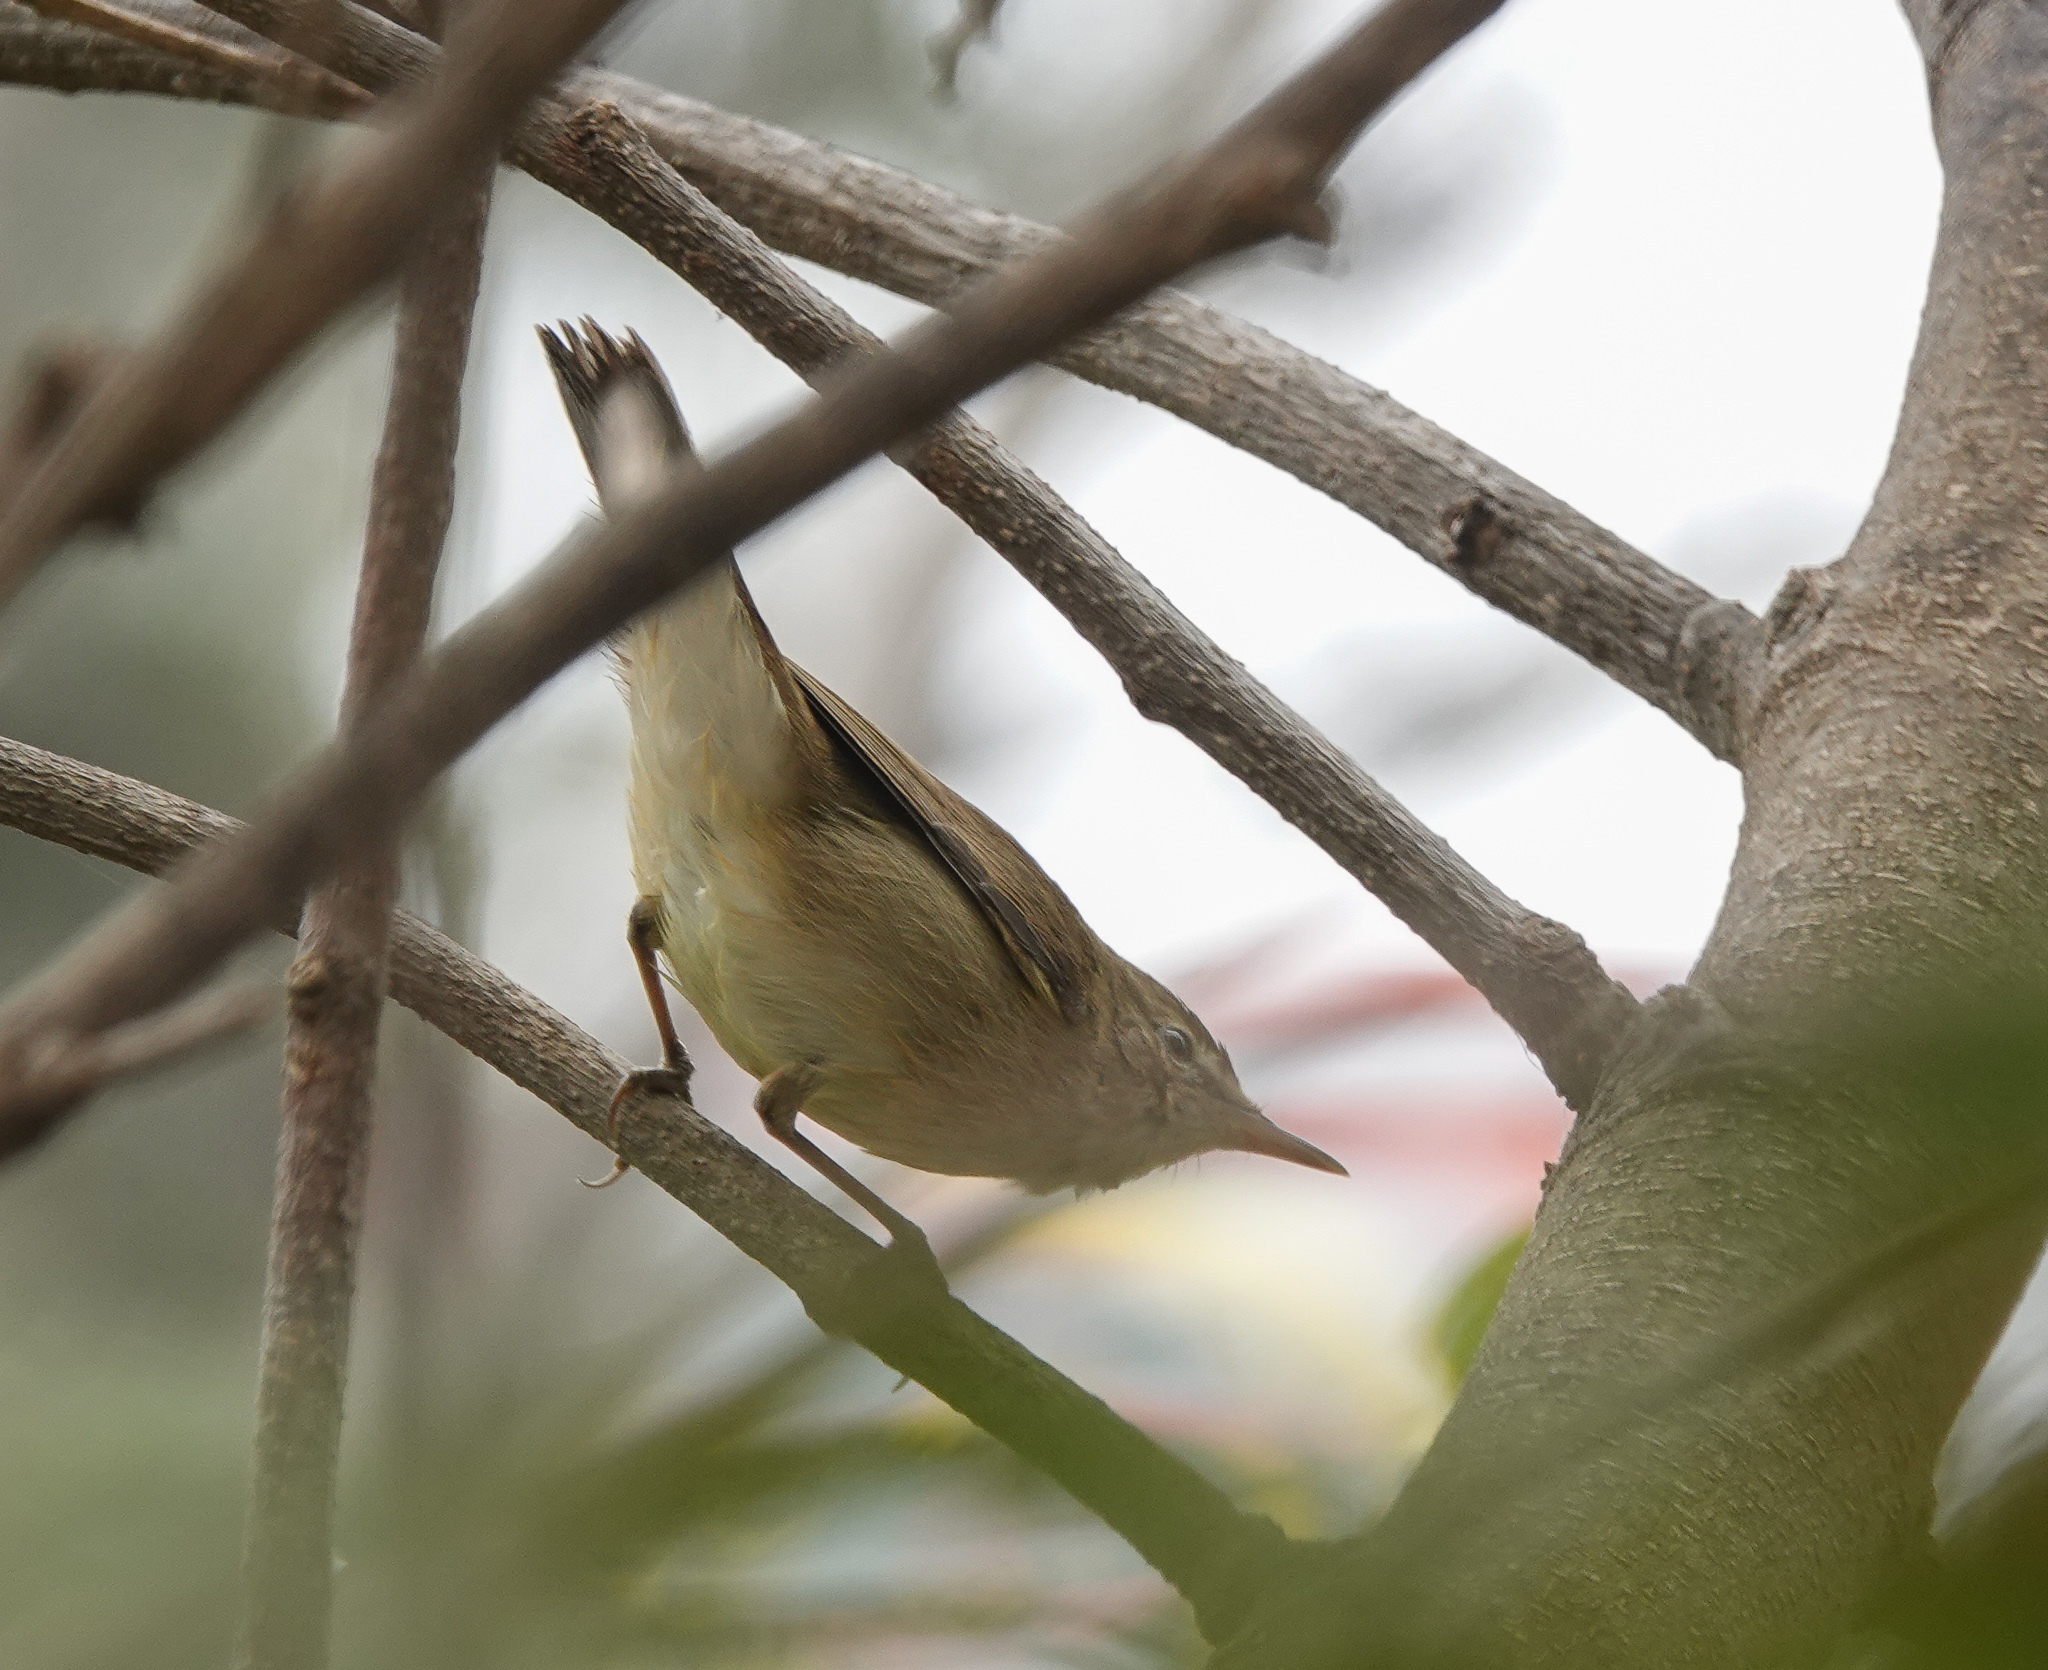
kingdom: Animalia
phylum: Chordata
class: Aves
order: Passeriformes
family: Acrocephalidae
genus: Acrocephalus
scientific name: Acrocephalus dumetorum
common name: Blyth's reed warbler
